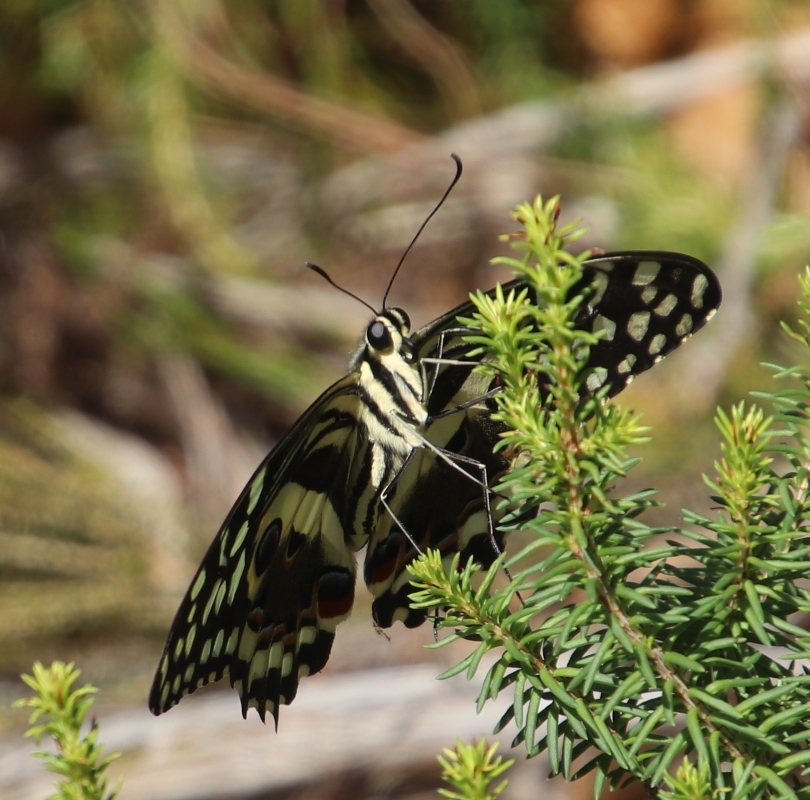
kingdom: Animalia
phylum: Arthropoda
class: Insecta
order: Lepidoptera
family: Papilionidae
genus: Papilio
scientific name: Papilio demodocus
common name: Christmas butterfly
